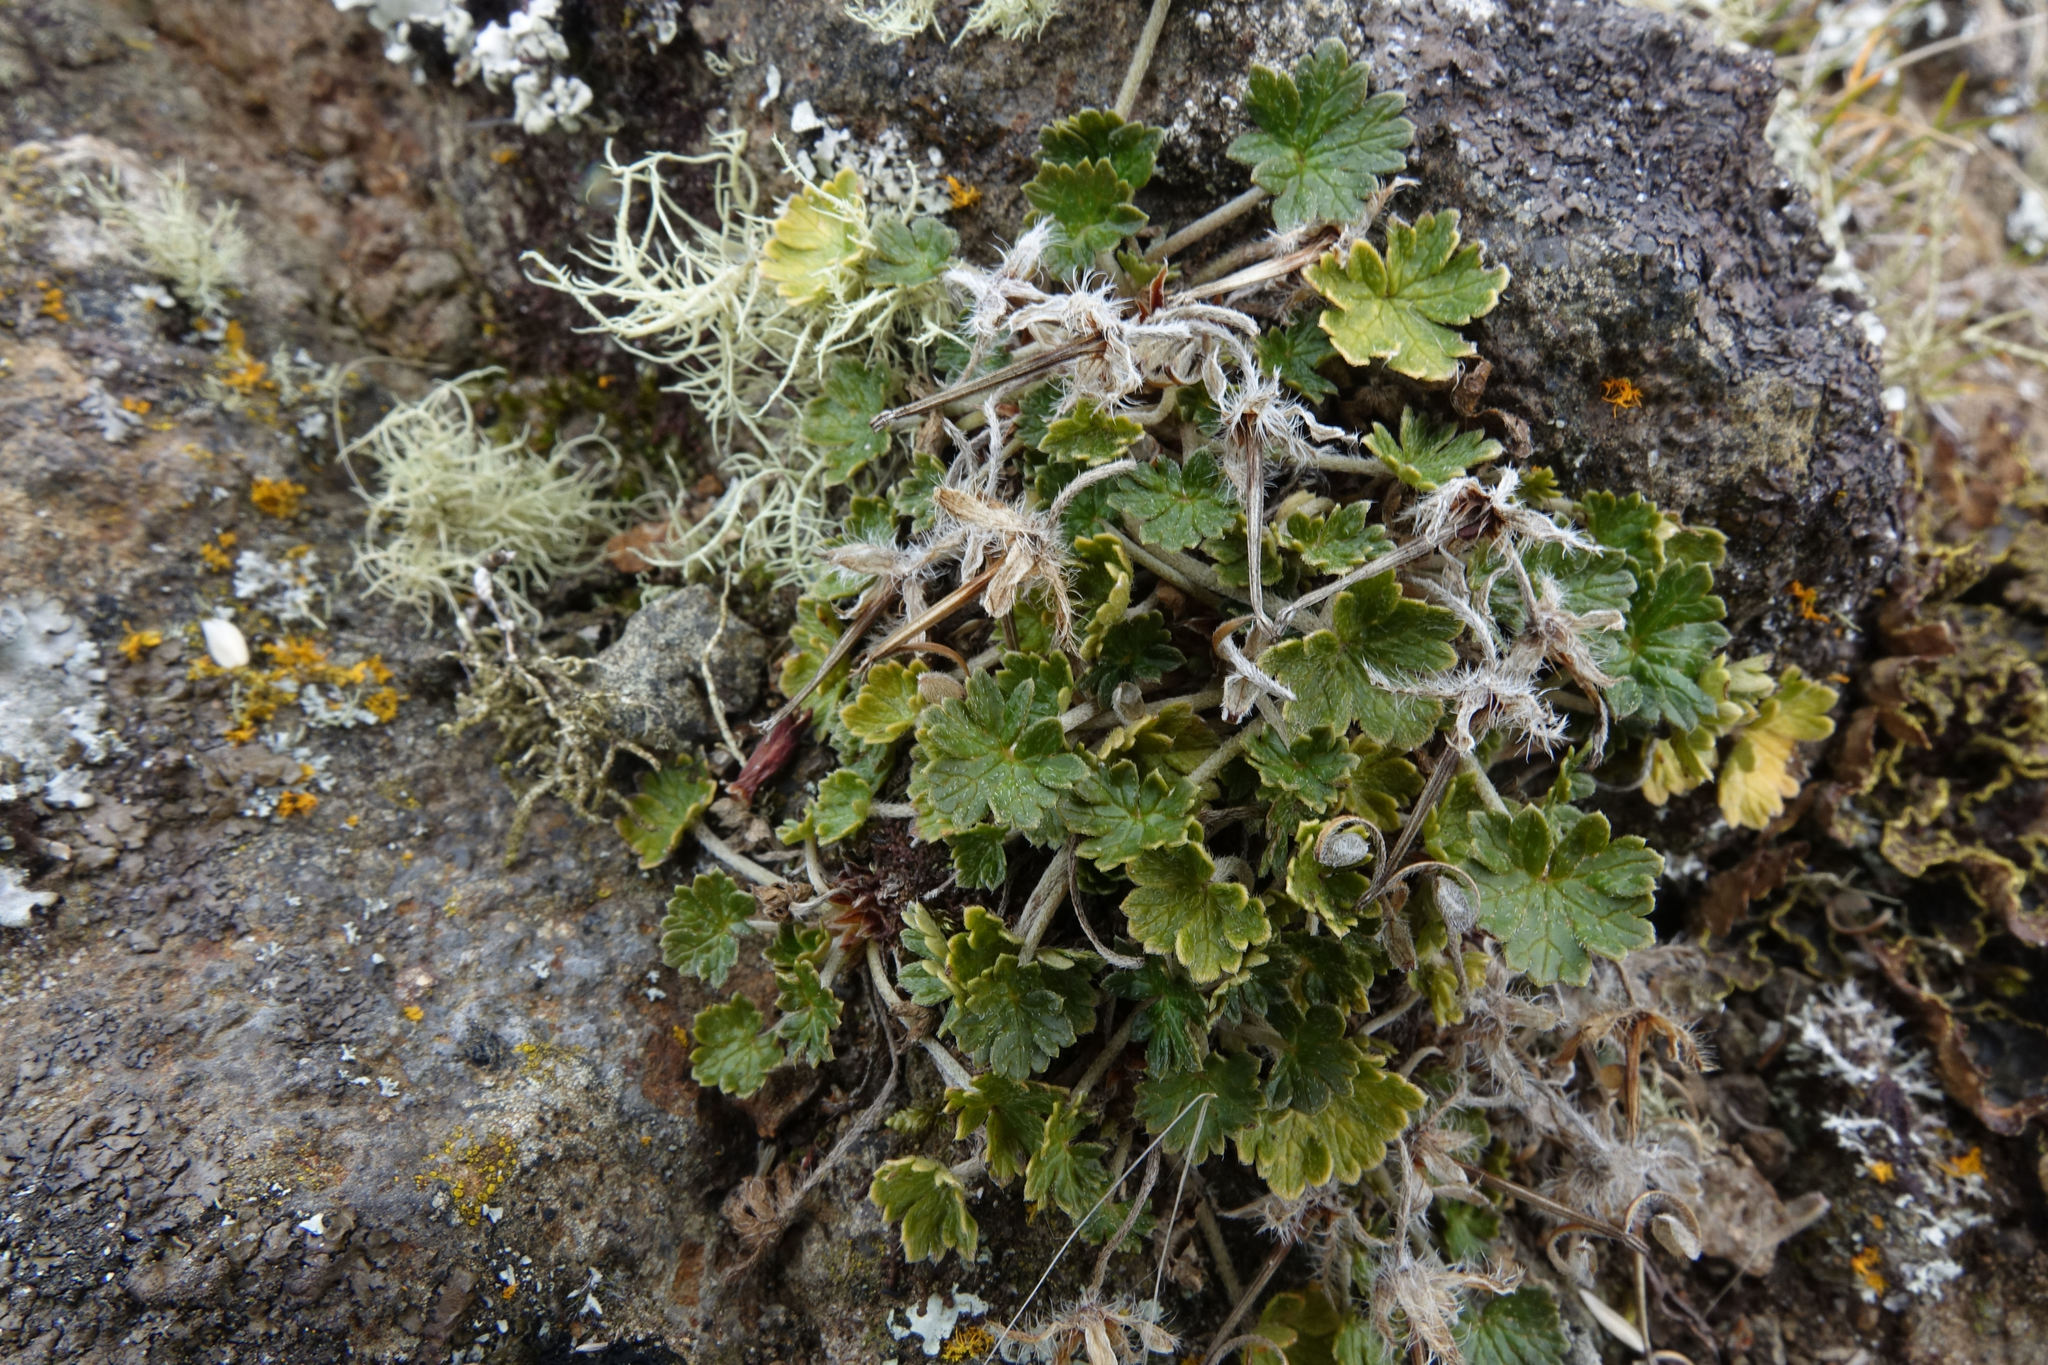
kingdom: Plantae
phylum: Tracheophyta
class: Magnoliopsida
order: Geraniales
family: Geraniaceae
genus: Geranium
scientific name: Geranium brevicaule
